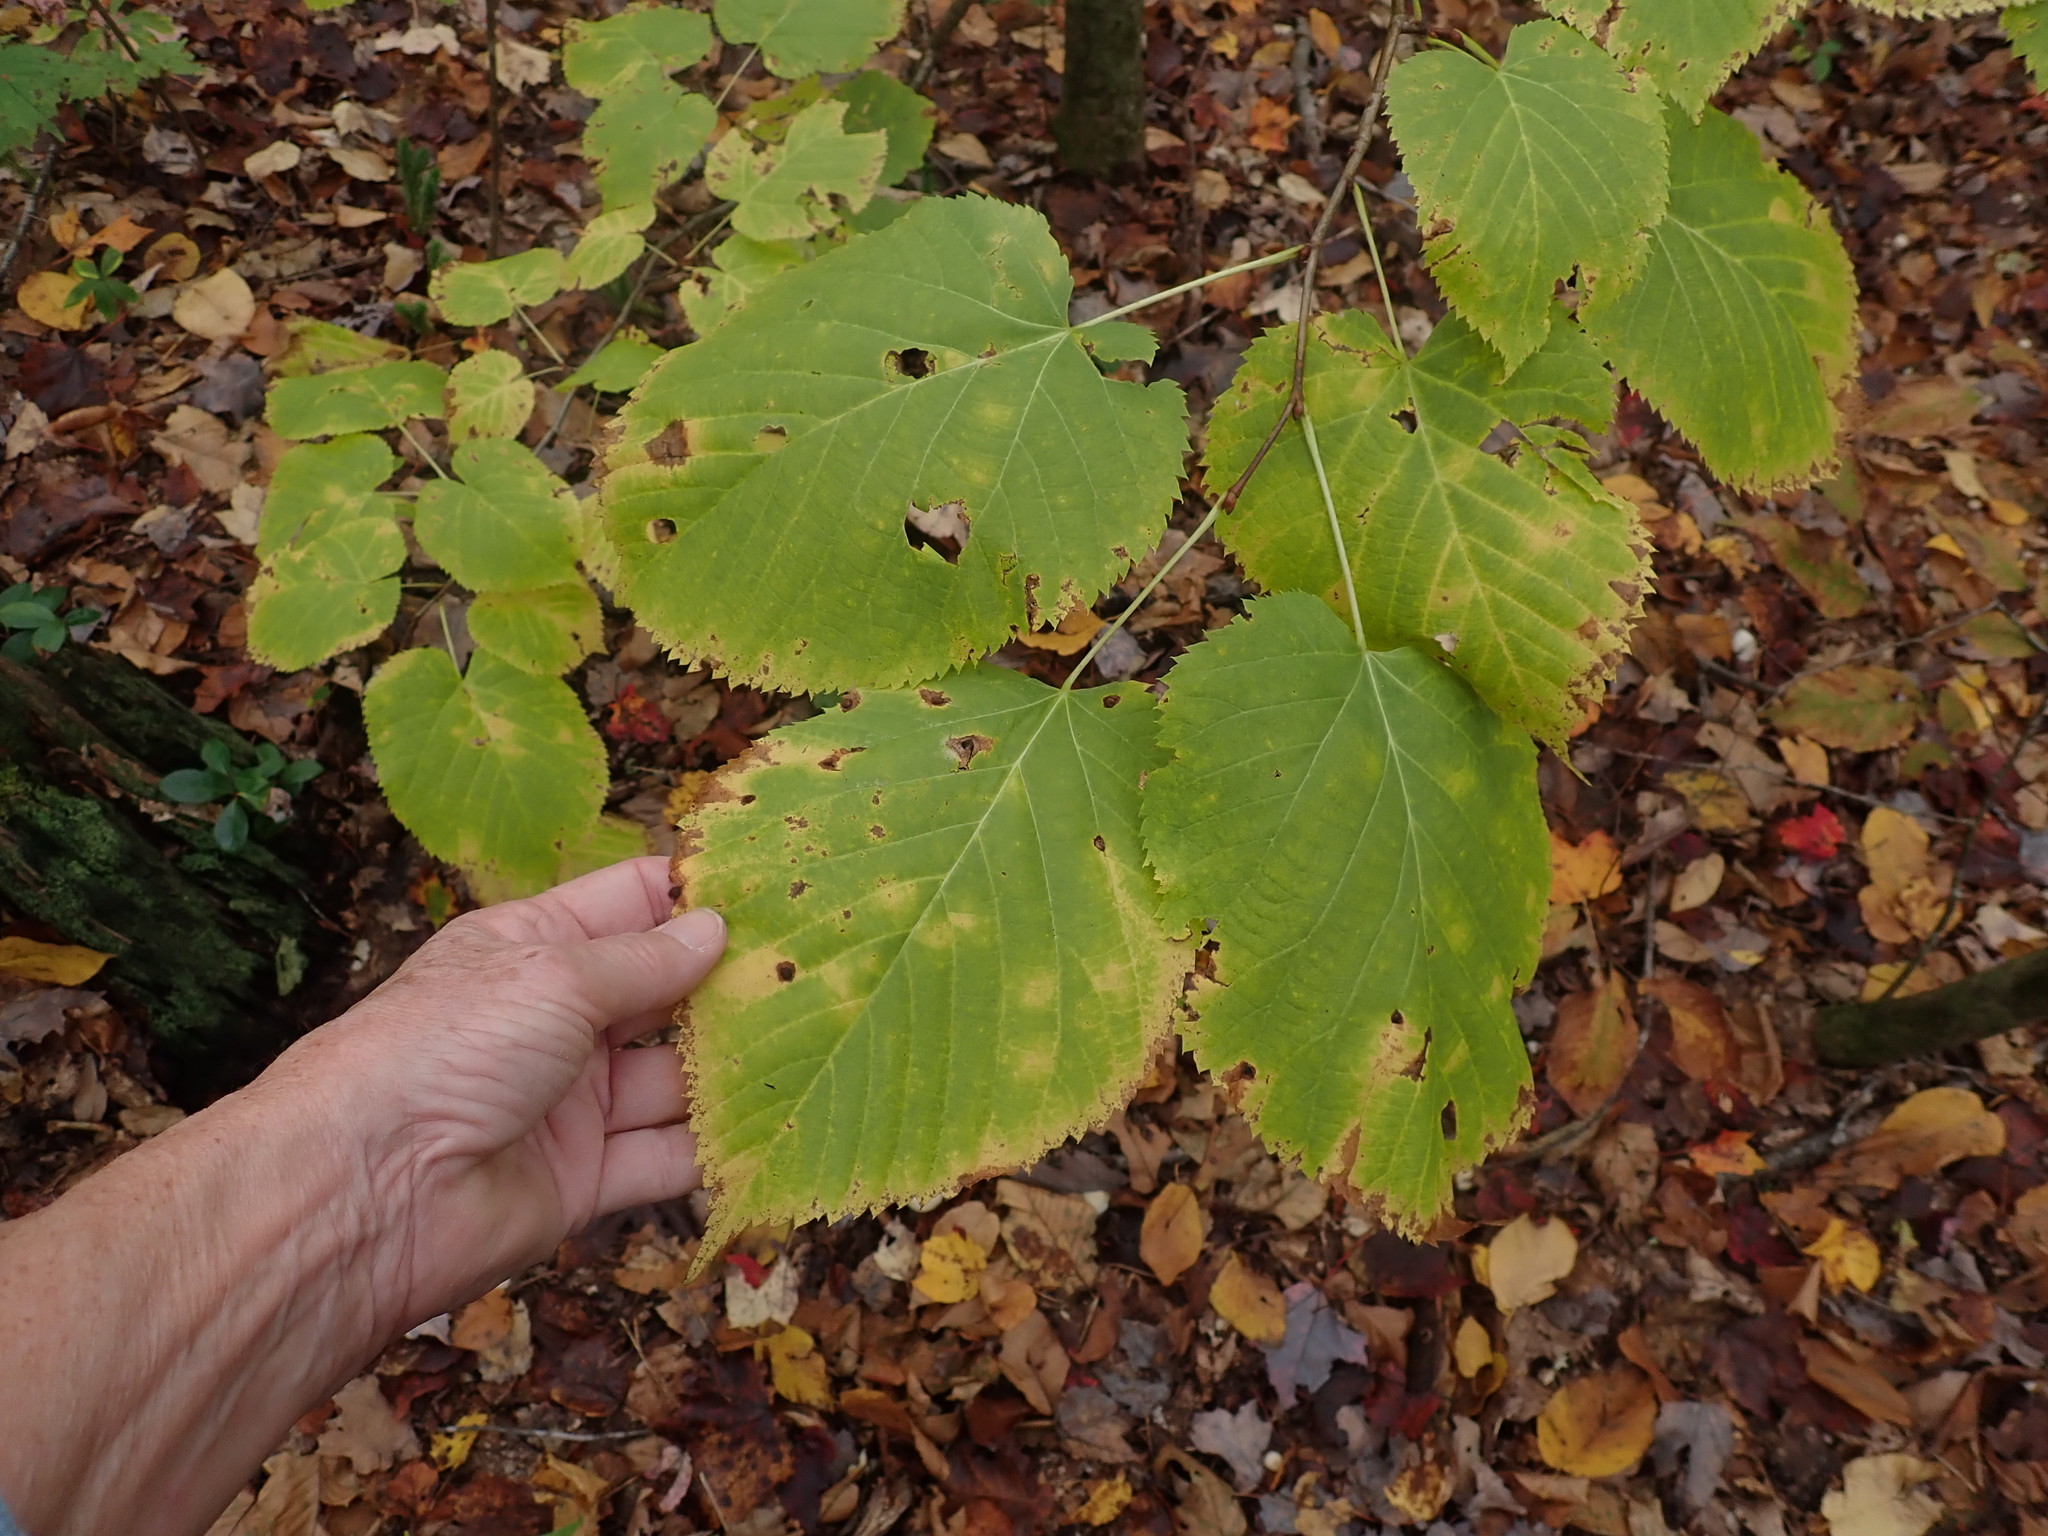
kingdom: Plantae
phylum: Tracheophyta
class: Magnoliopsida
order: Malvales
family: Malvaceae
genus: Tilia
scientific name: Tilia americana
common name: Basswood
